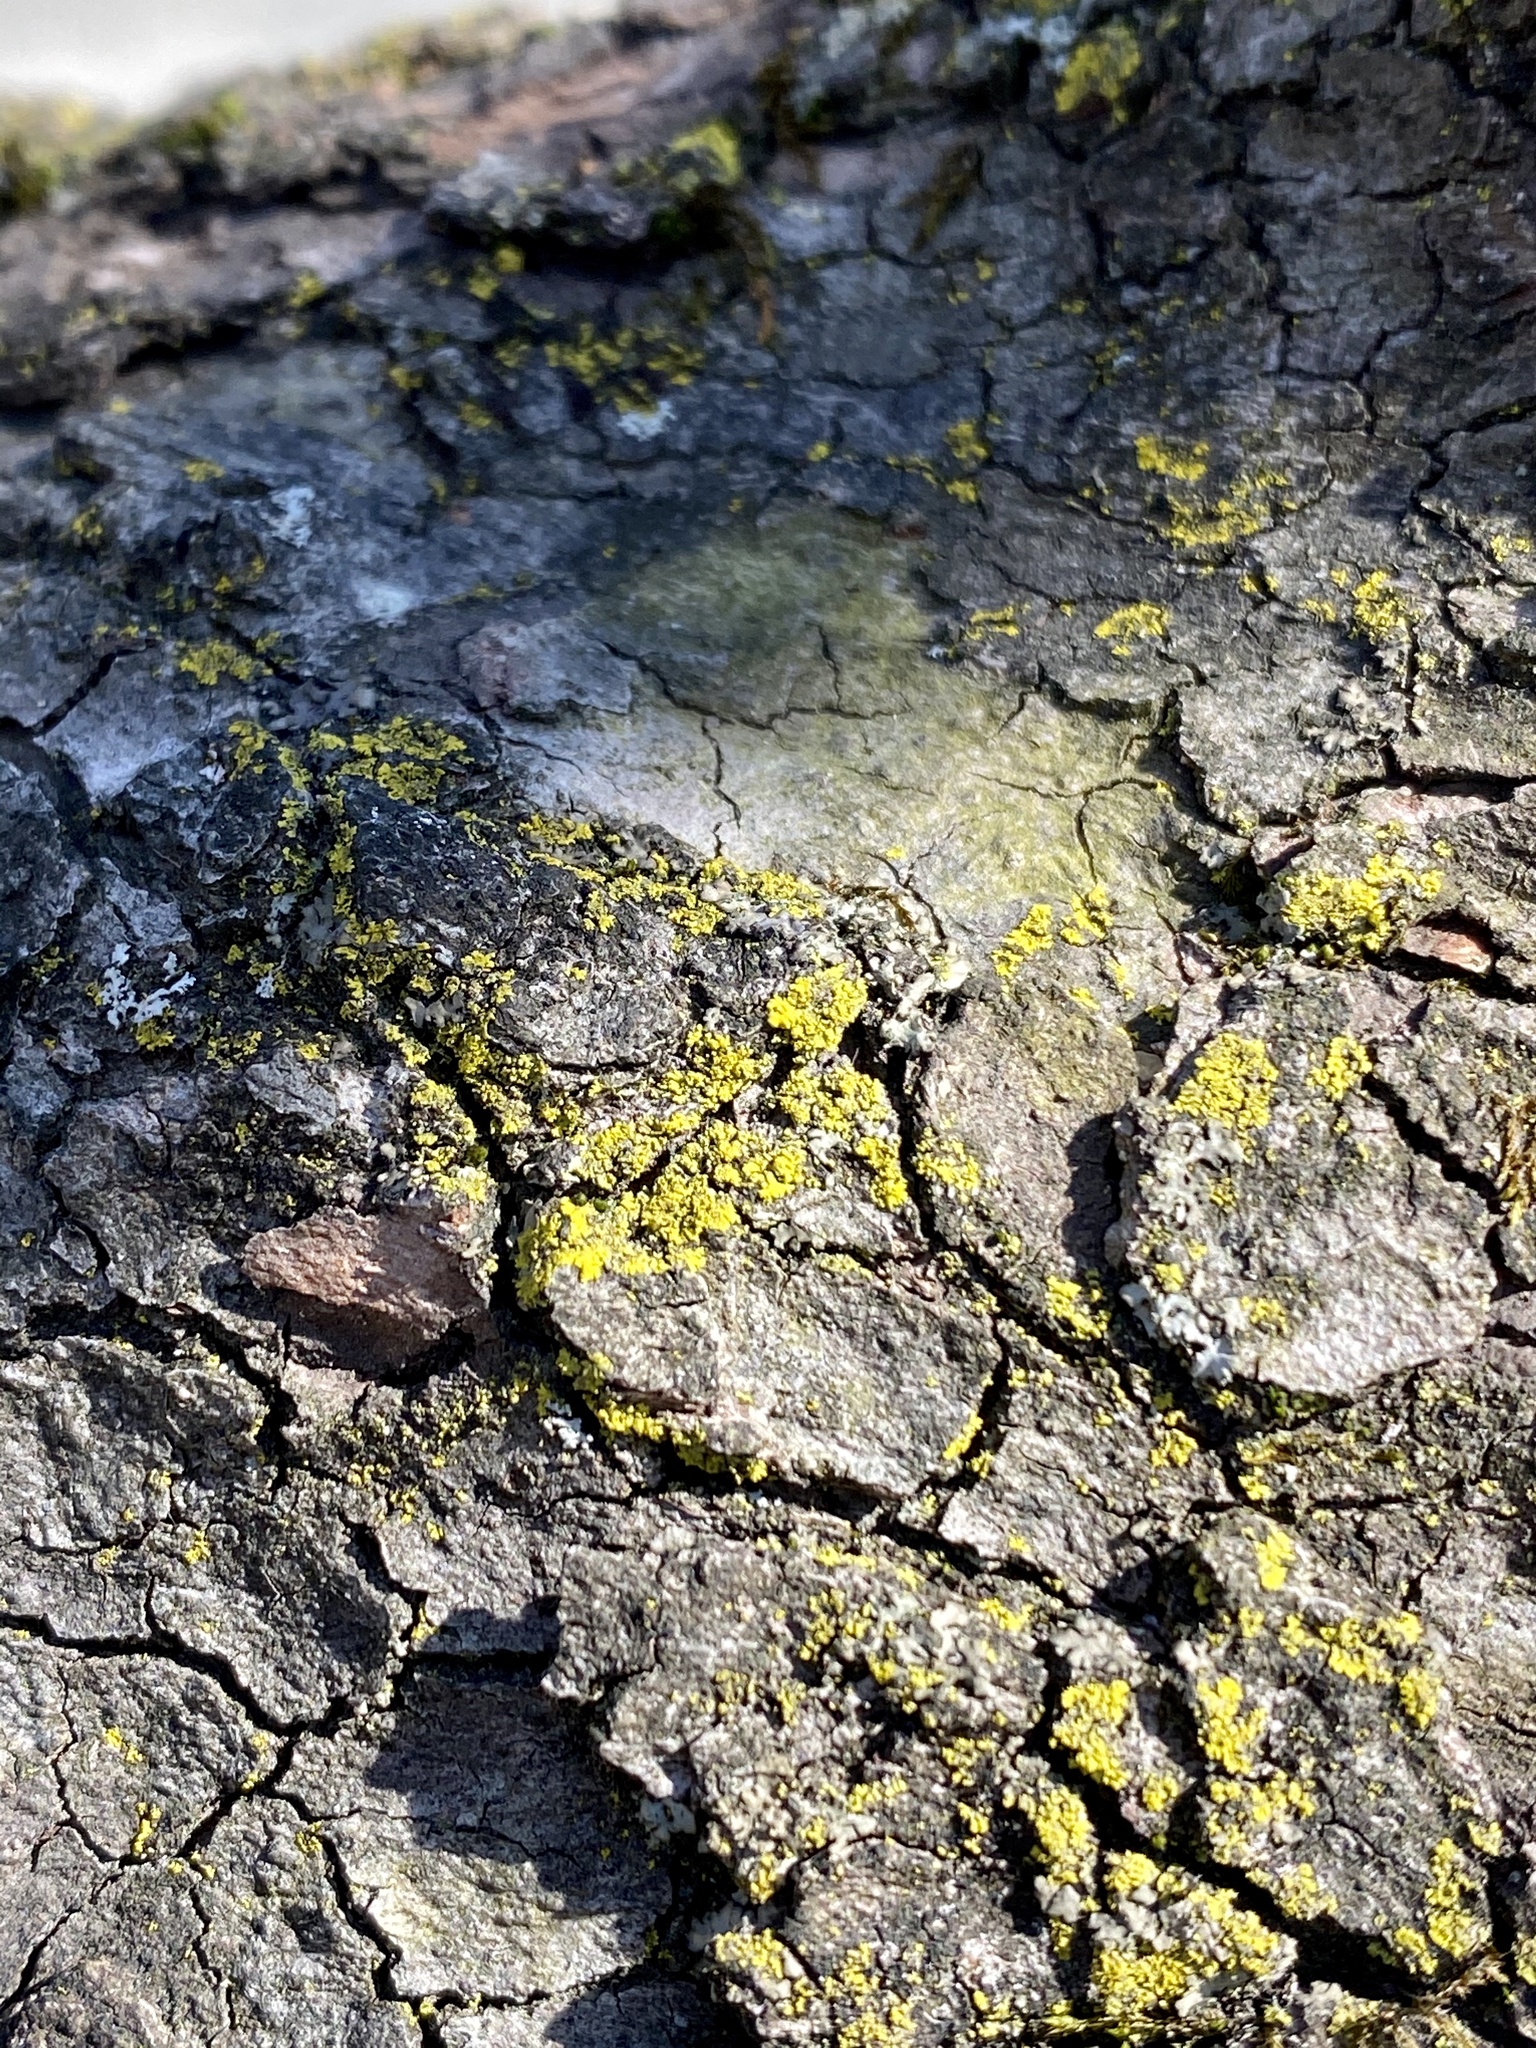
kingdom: Fungi
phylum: Ascomycota
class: Candelariomycetes
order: Candelariales
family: Candelariaceae
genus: Candelaria
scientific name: Candelaria concolor
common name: Candleflame lichen
